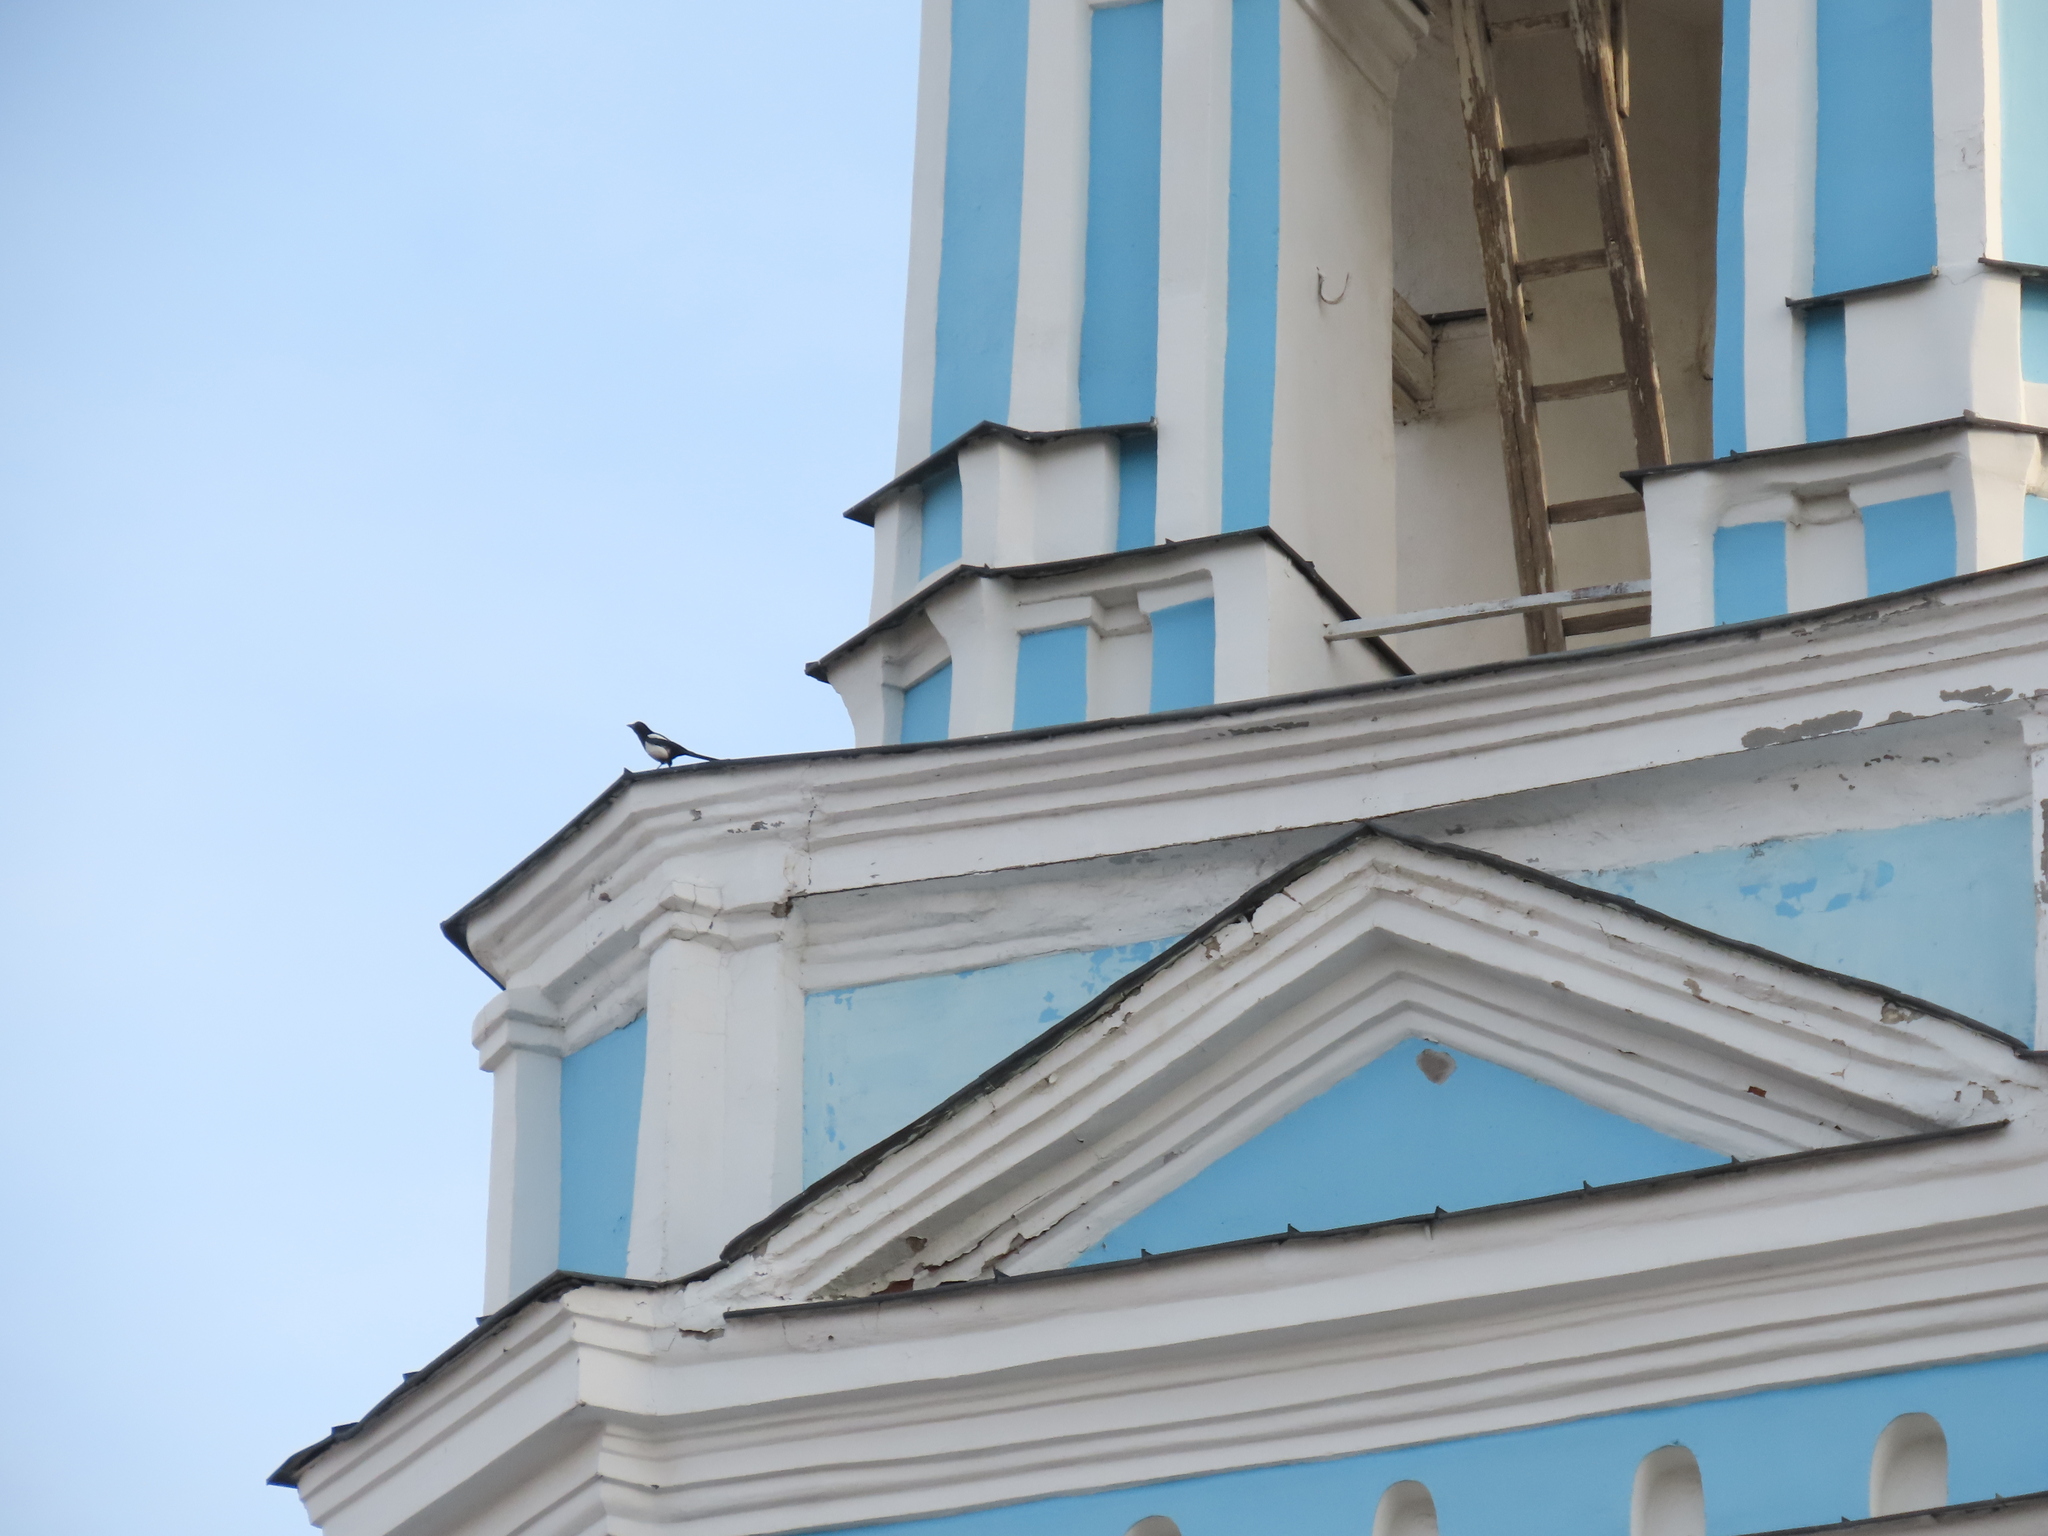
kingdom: Animalia
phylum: Chordata
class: Aves
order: Passeriformes
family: Corvidae
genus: Pica
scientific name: Pica pica
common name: Eurasian magpie
